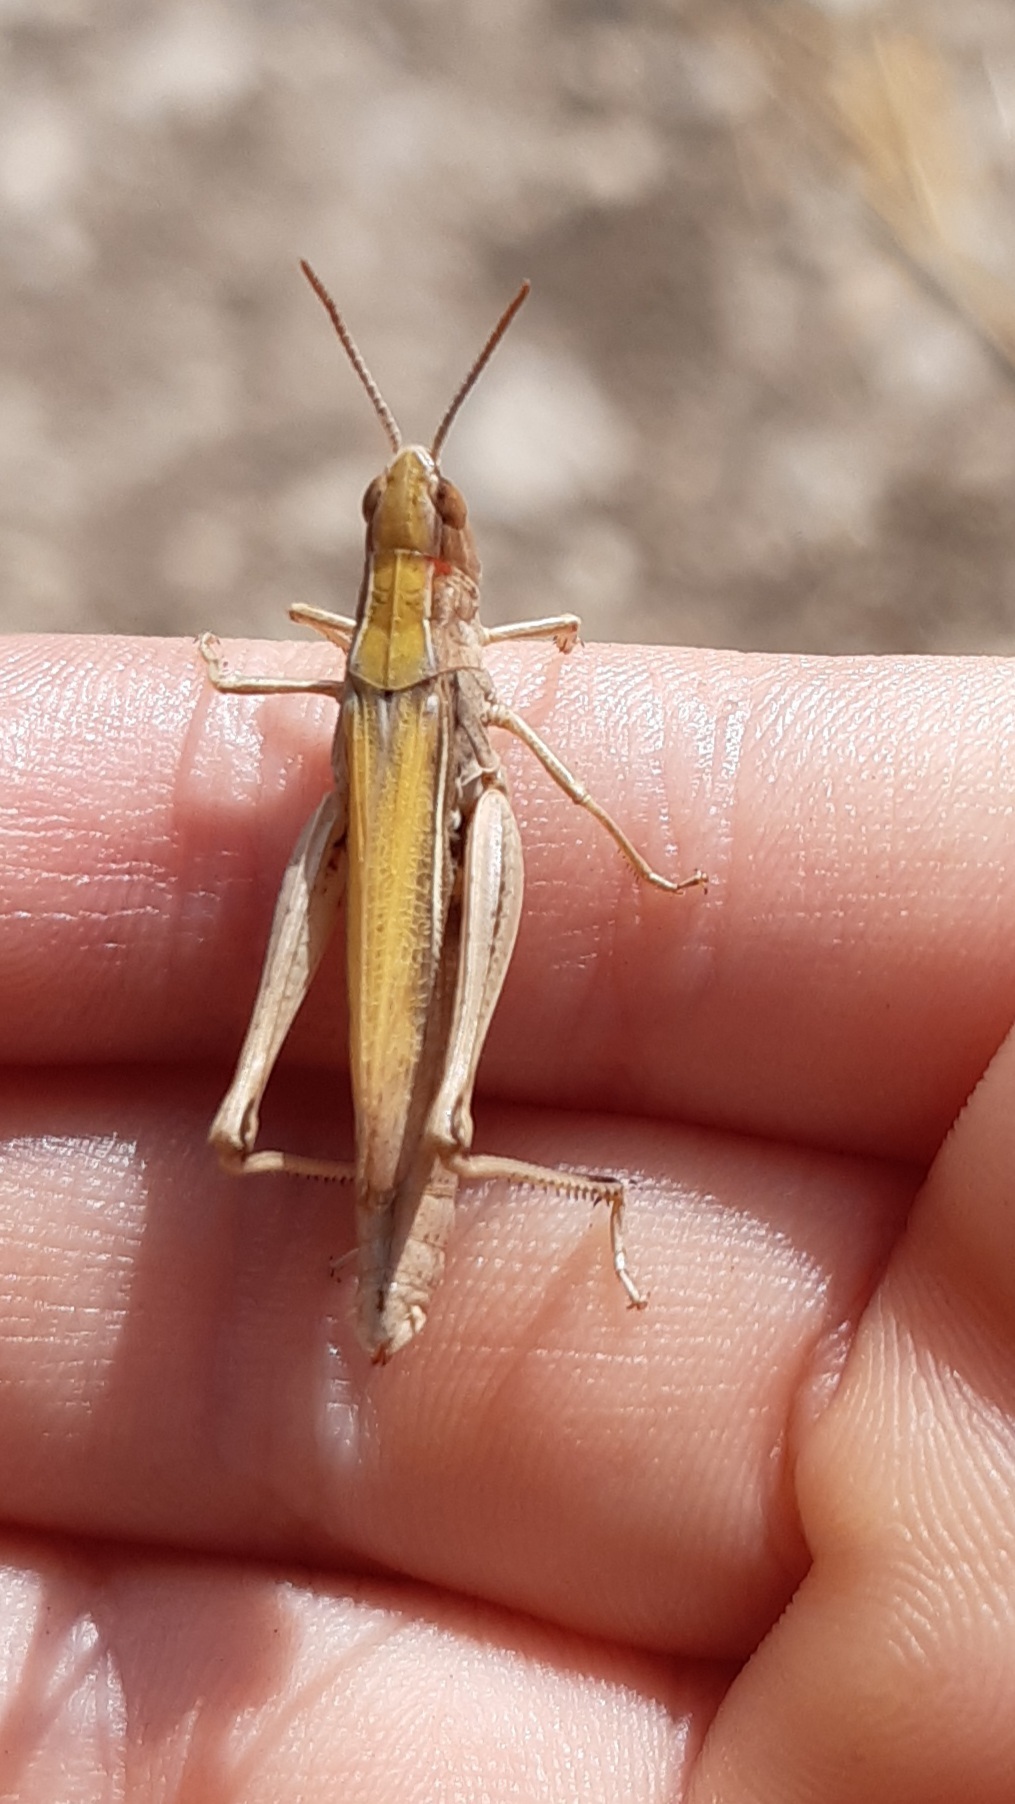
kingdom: Animalia
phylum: Arthropoda
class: Insecta
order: Orthoptera
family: Acrididae
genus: Chorthippus
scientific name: Chorthippus dorsatus
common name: Steppe grasshopper
